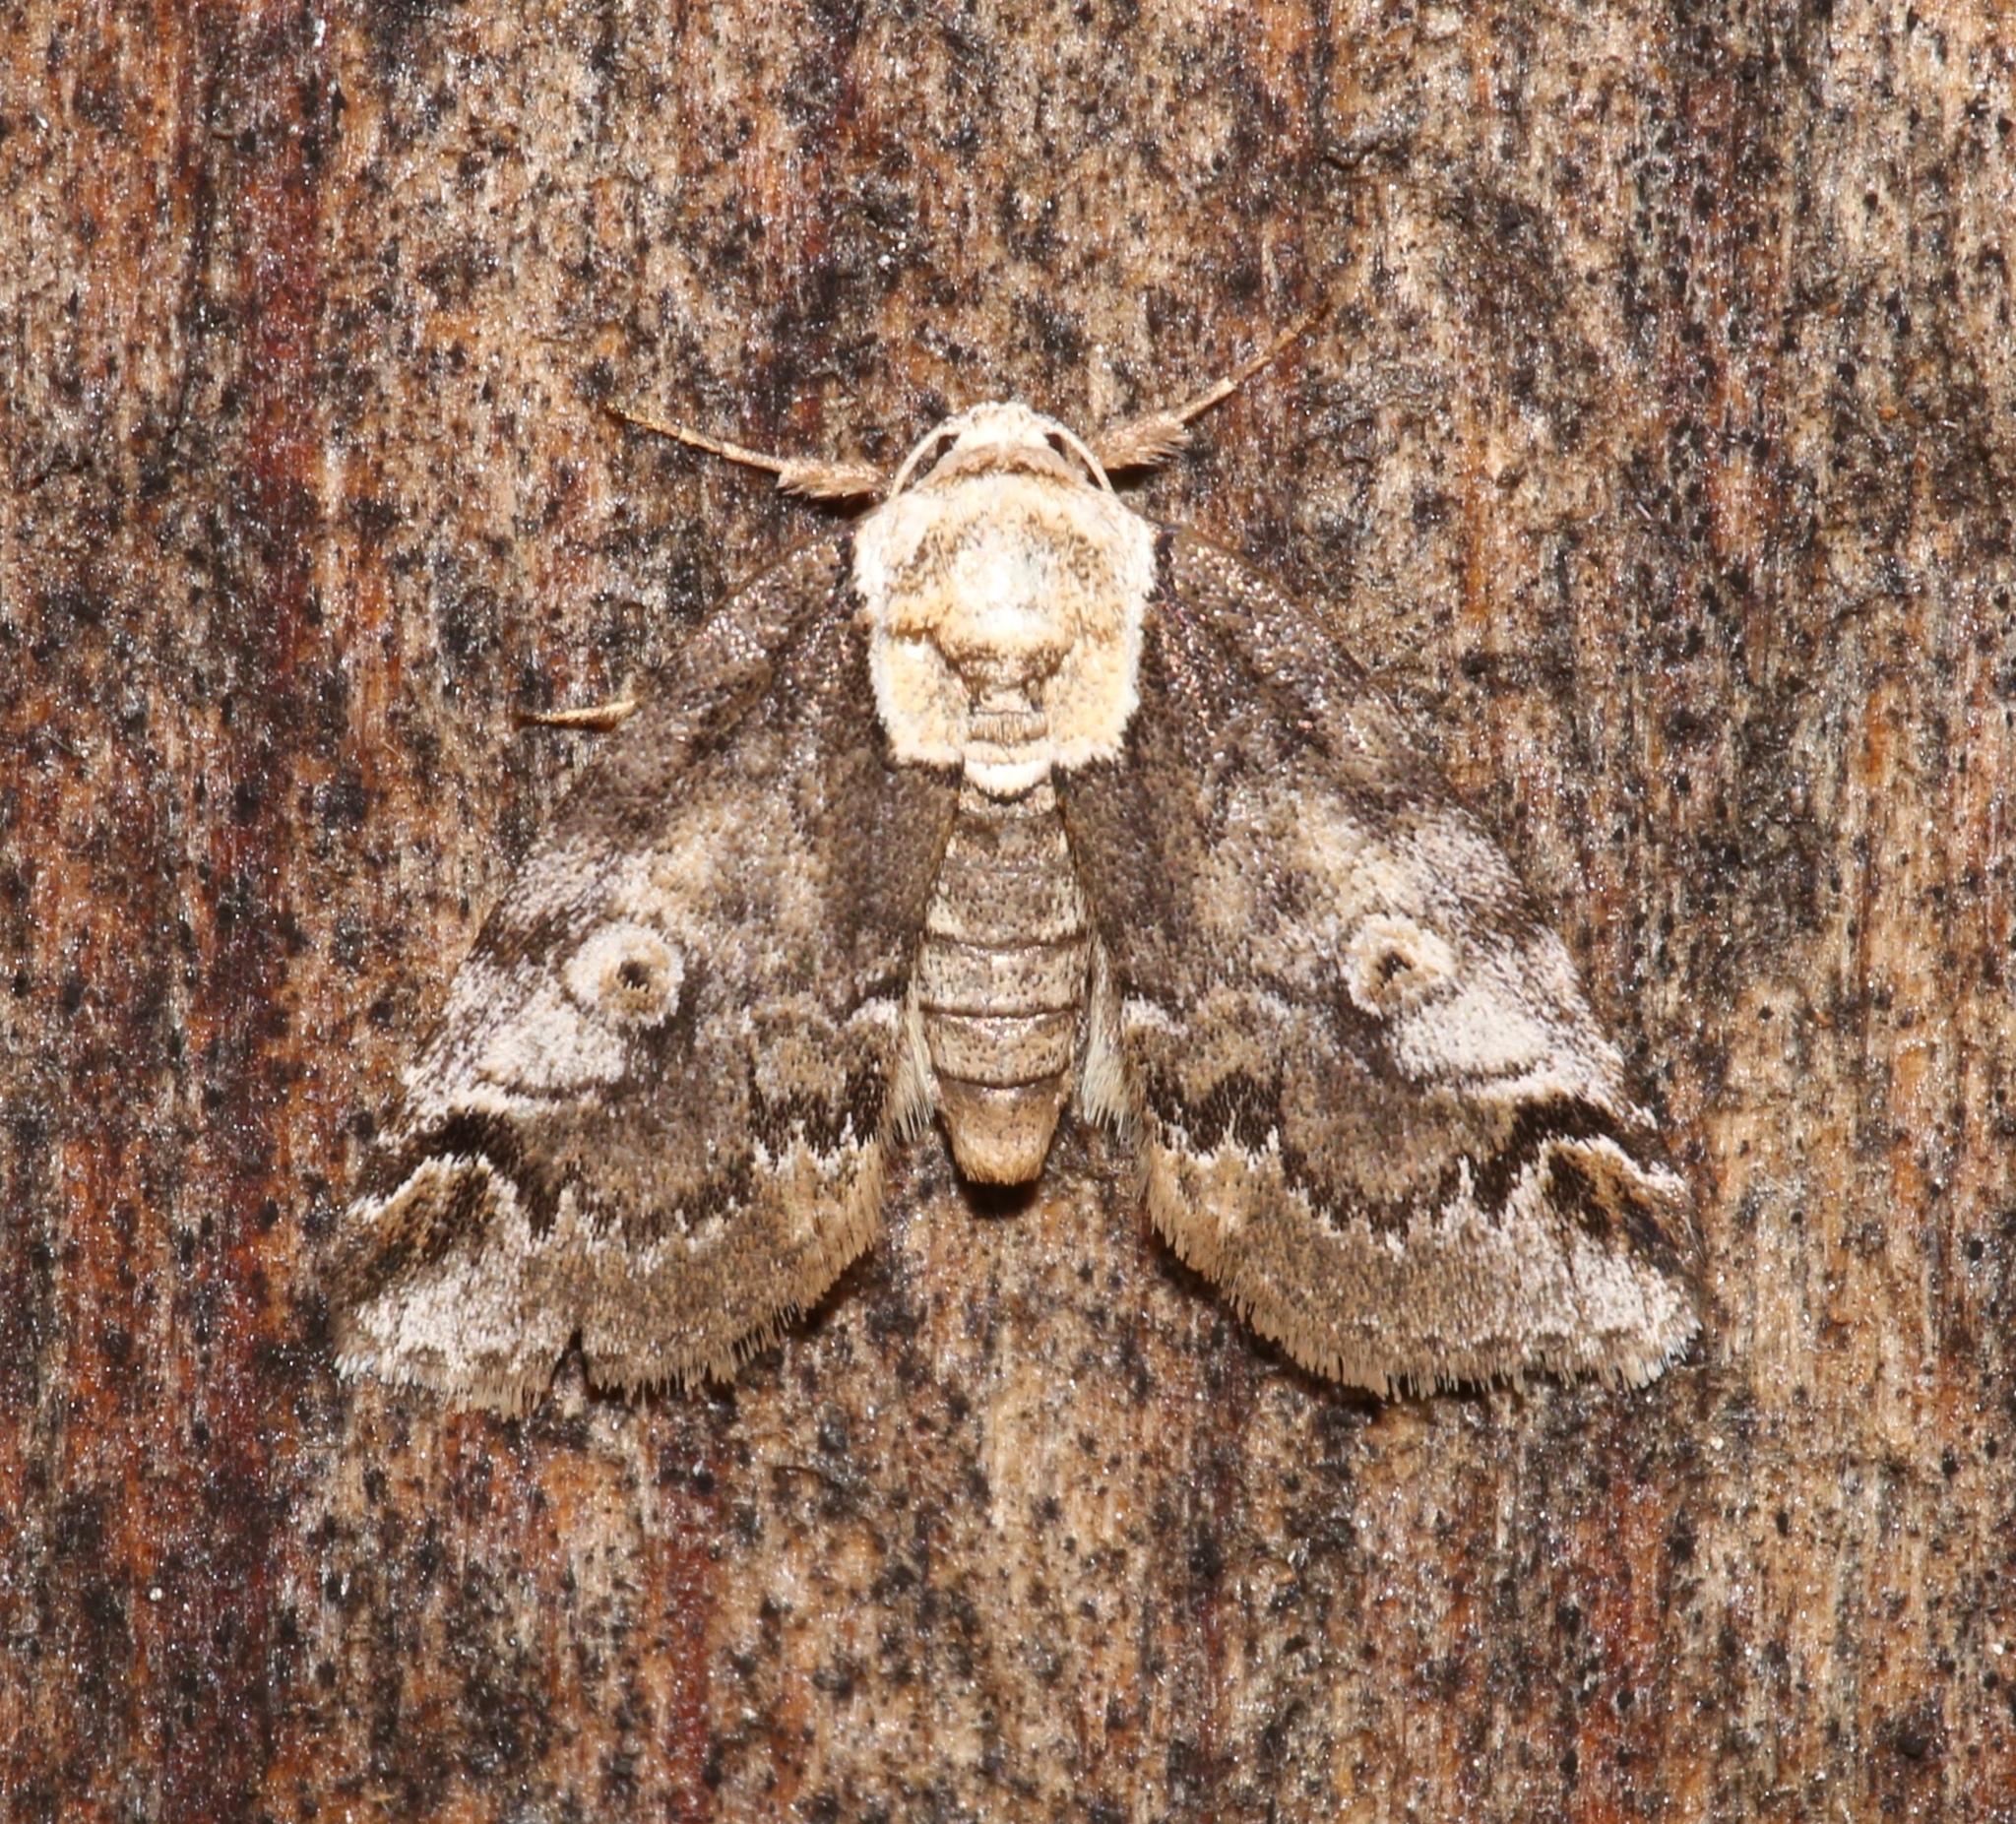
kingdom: Animalia
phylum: Arthropoda
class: Insecta
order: Lepidoptera
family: Nolidae
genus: Baileya
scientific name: Baileya ophthalmica
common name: Eyed baileya moth
